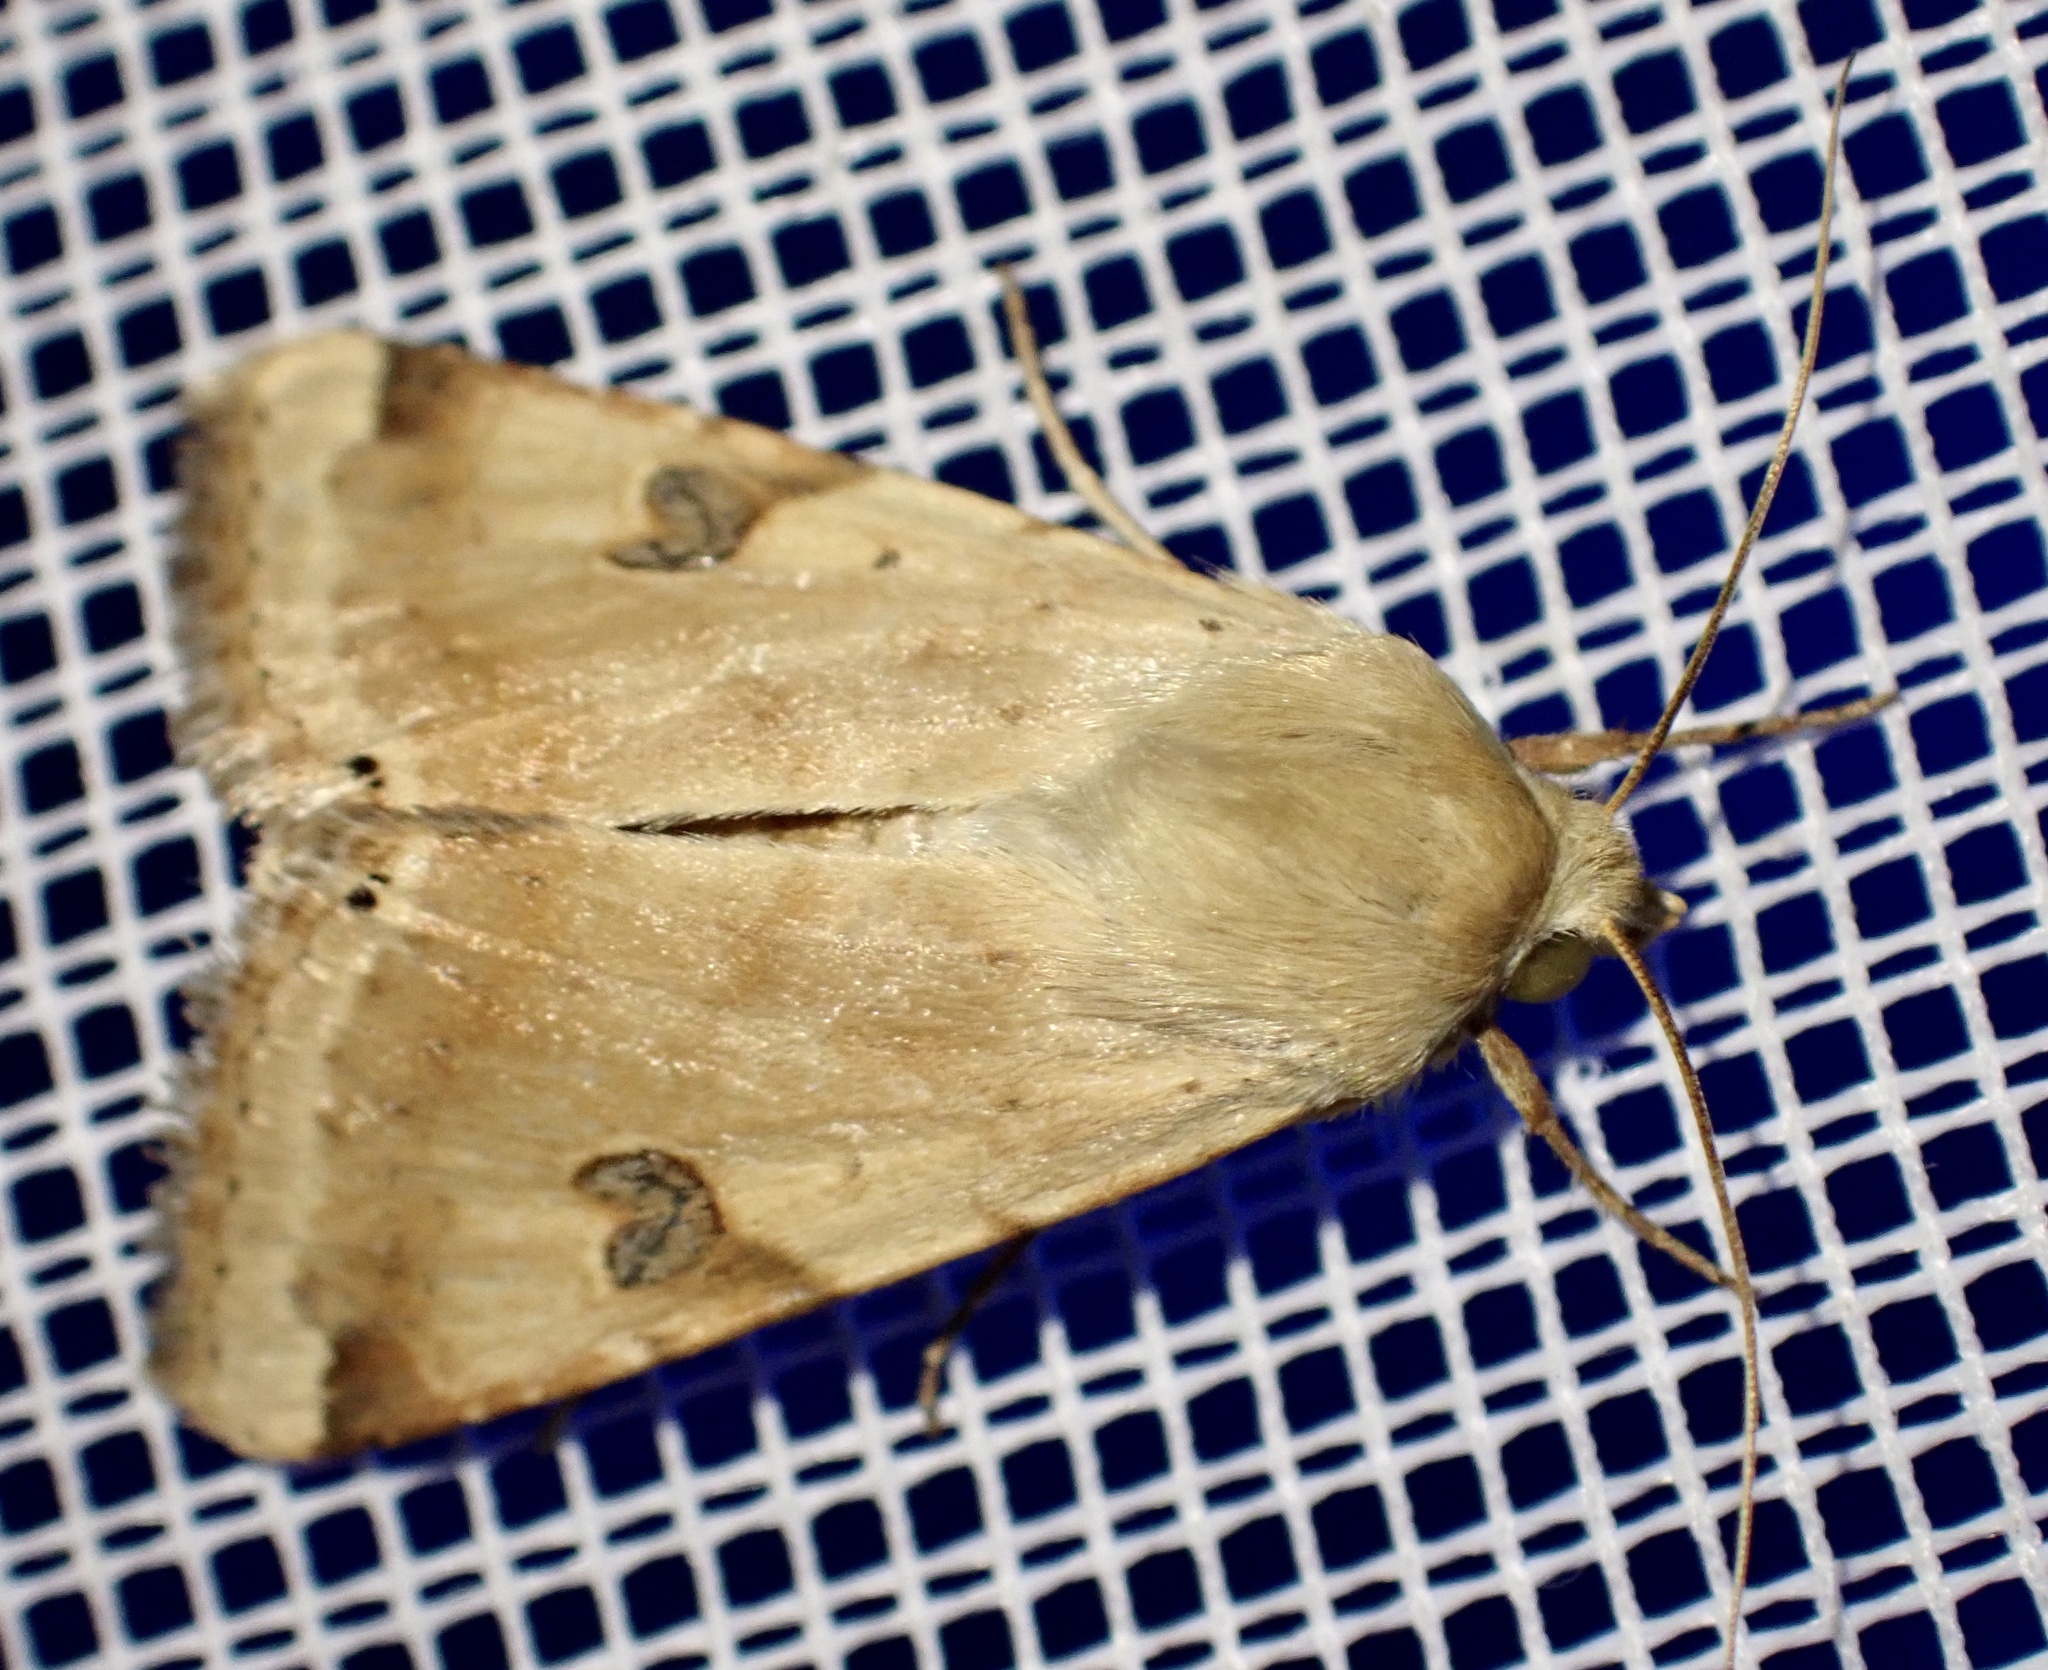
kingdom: Animalia
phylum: Arthropoda
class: Insecta
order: Lepidoptera
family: Noctuidae
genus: Heliothis
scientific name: Heliothis peltigera
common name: Bordered straw
